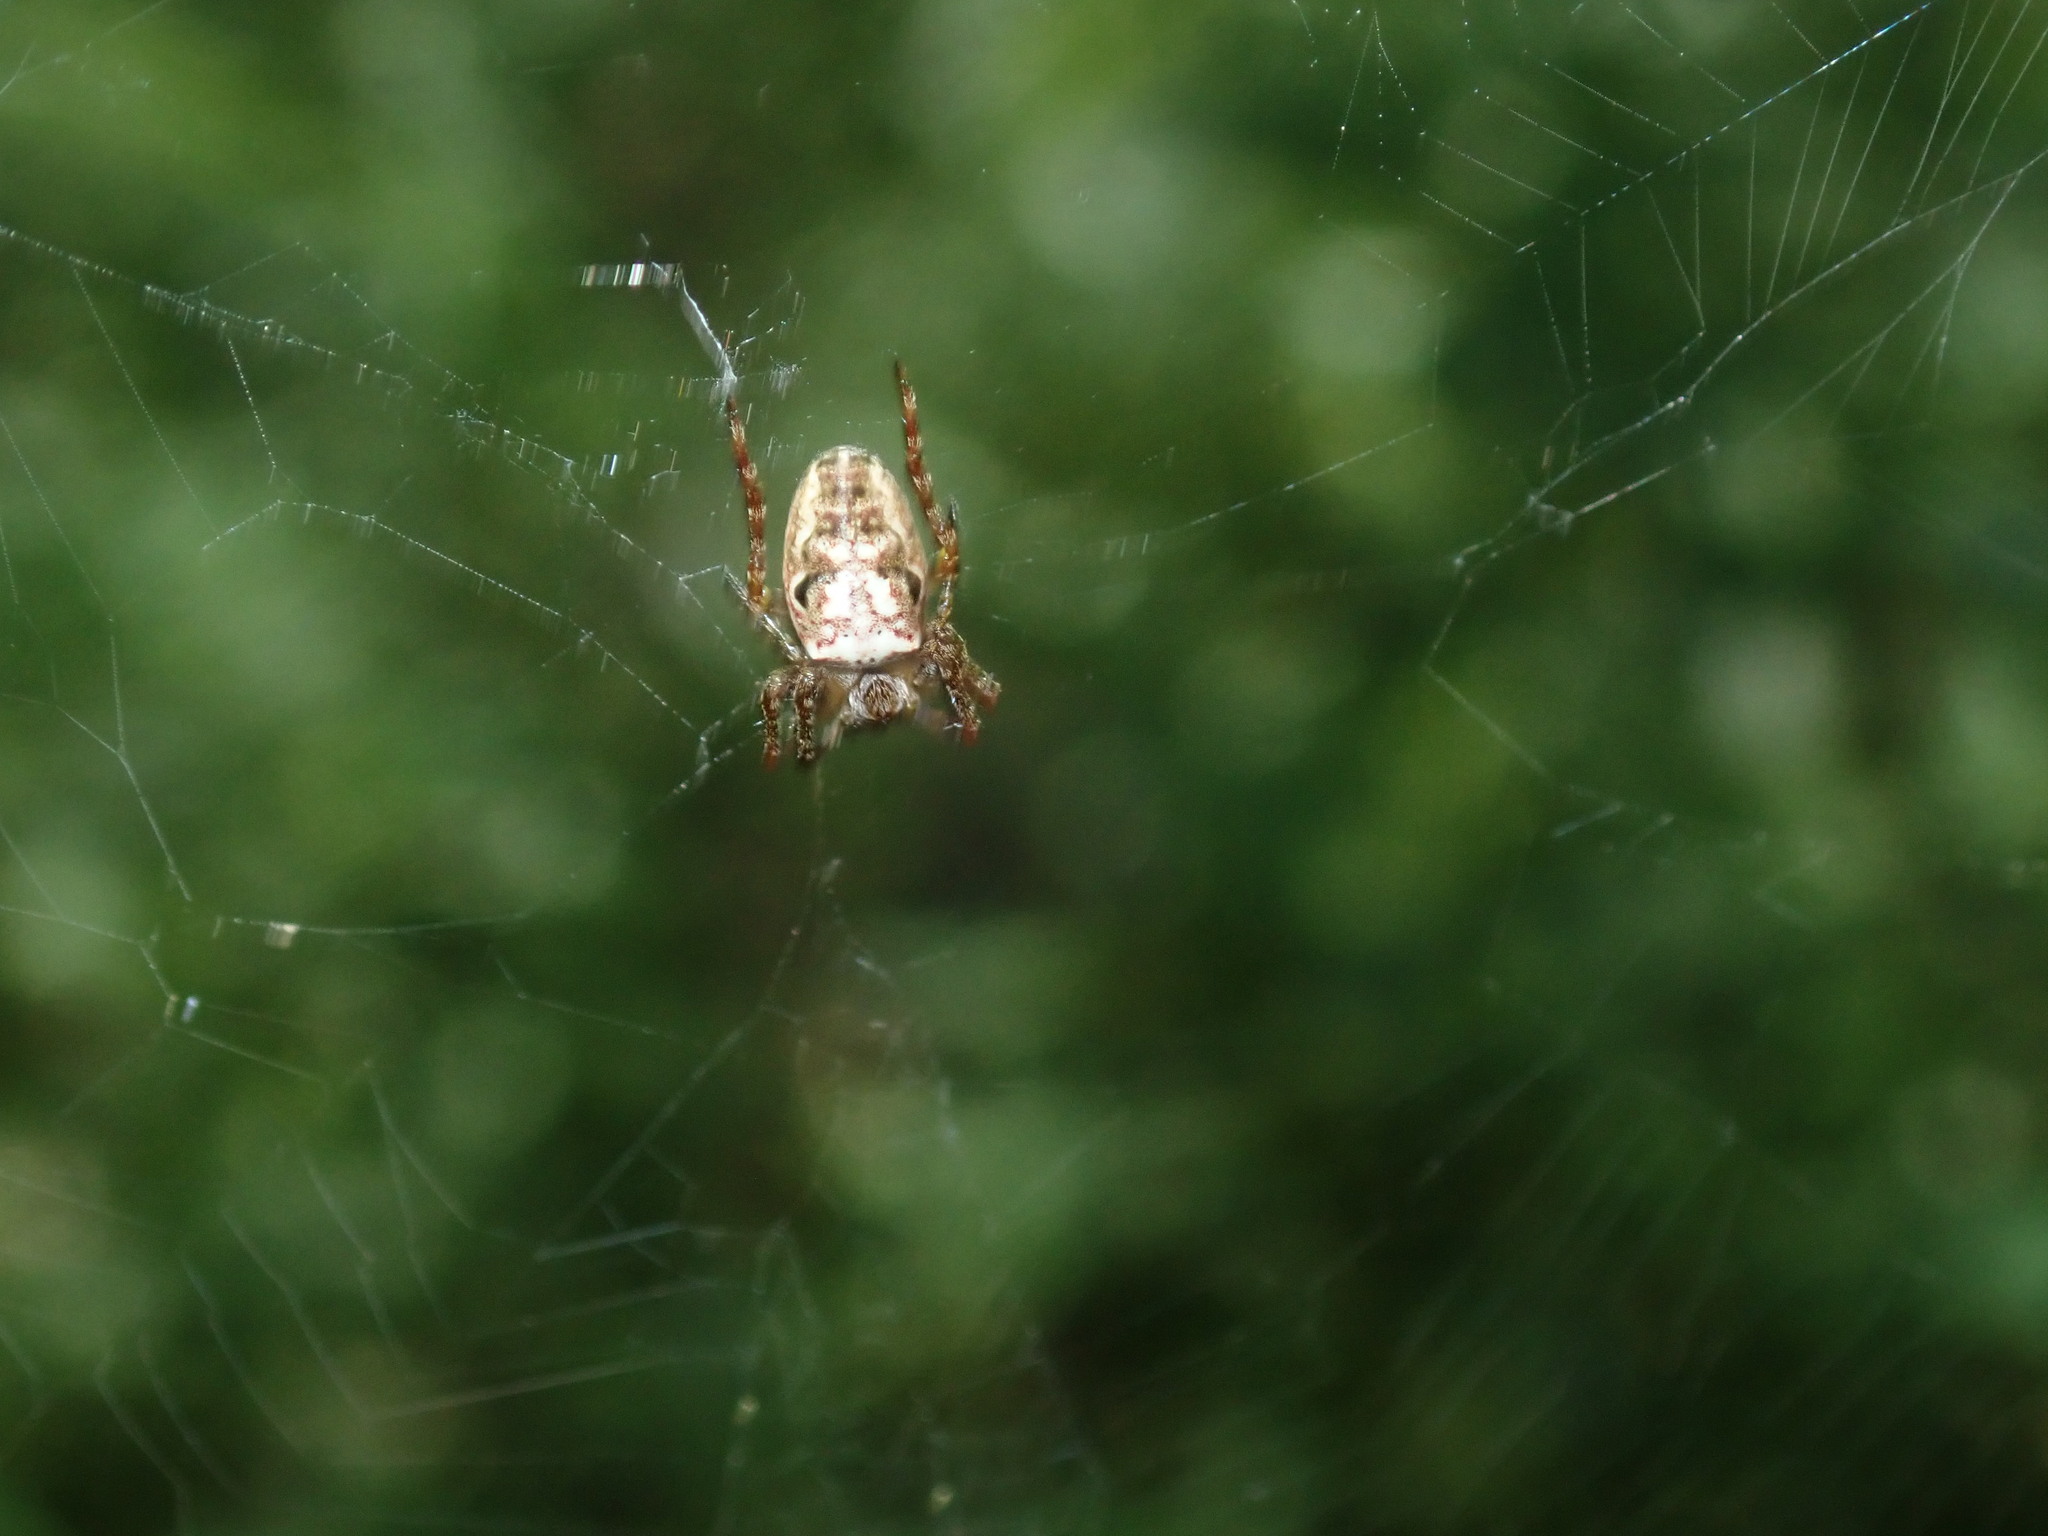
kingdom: Animalia
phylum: Arthropoda
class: Arachnida
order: Araneae
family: Araneidae
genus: Plebs
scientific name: Plebs eburnus
